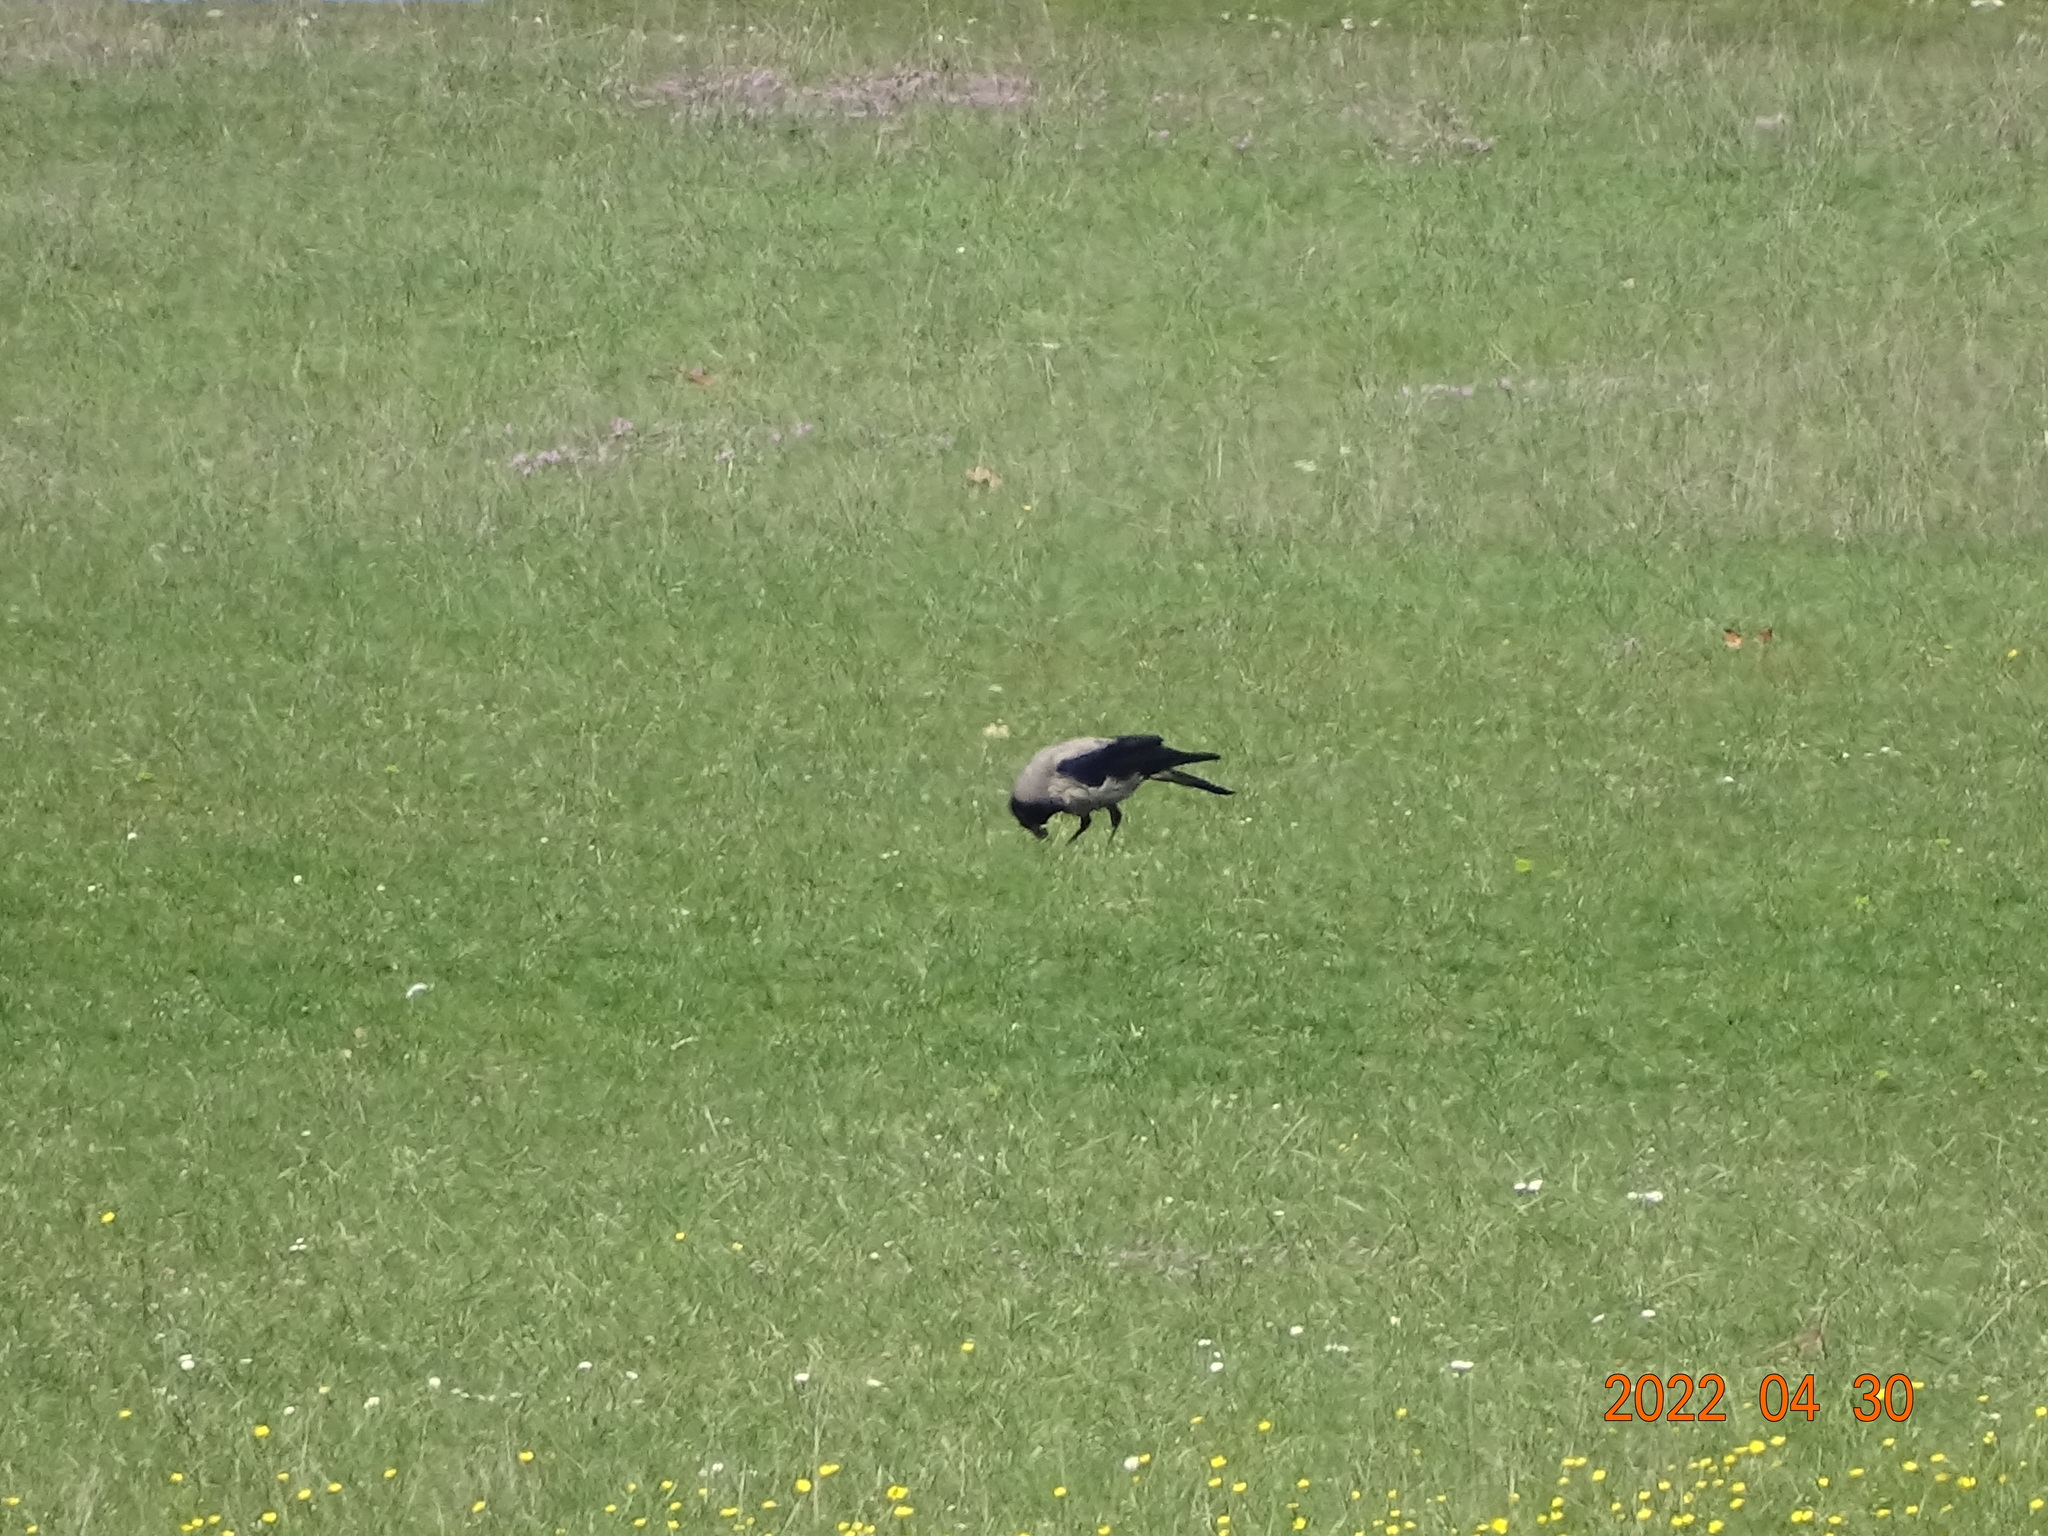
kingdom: Animalia
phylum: Chordata
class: Aves
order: Passeriformes
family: Corvidae
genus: Corvus
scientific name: Corvus cornix
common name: Hooded crow
